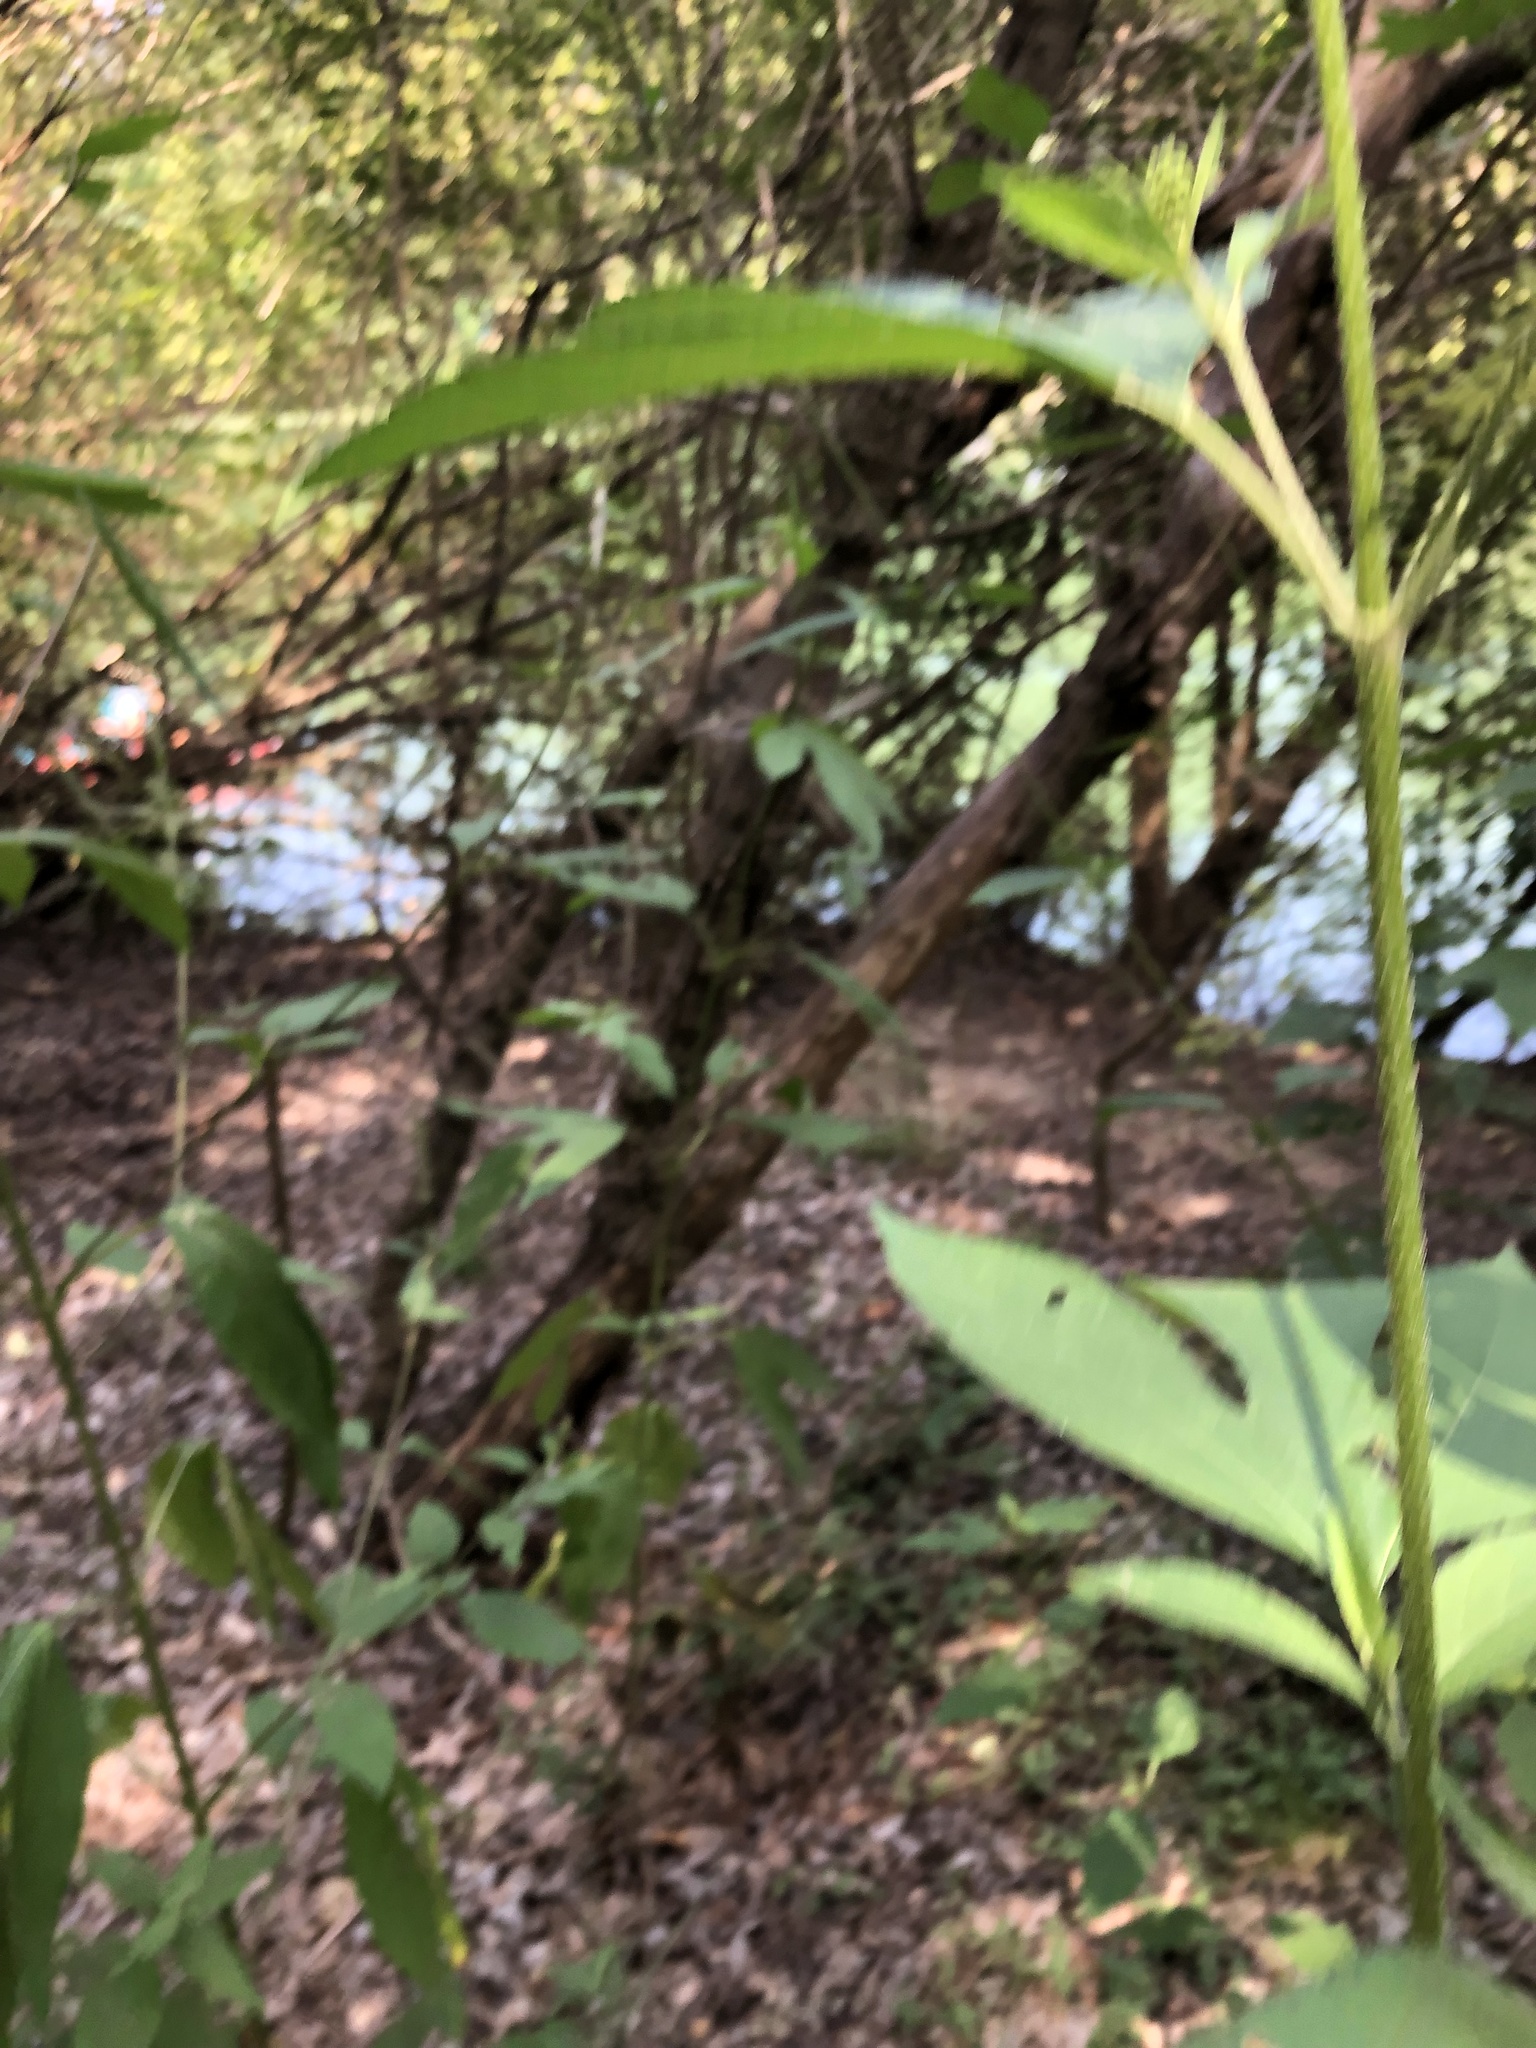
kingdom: Plantae
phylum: Tracheophyta
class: Magnoliopsida
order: Asterales
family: Asteraceae
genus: Ambrosia
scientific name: Ambrosia trifida
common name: Giant ragweed
